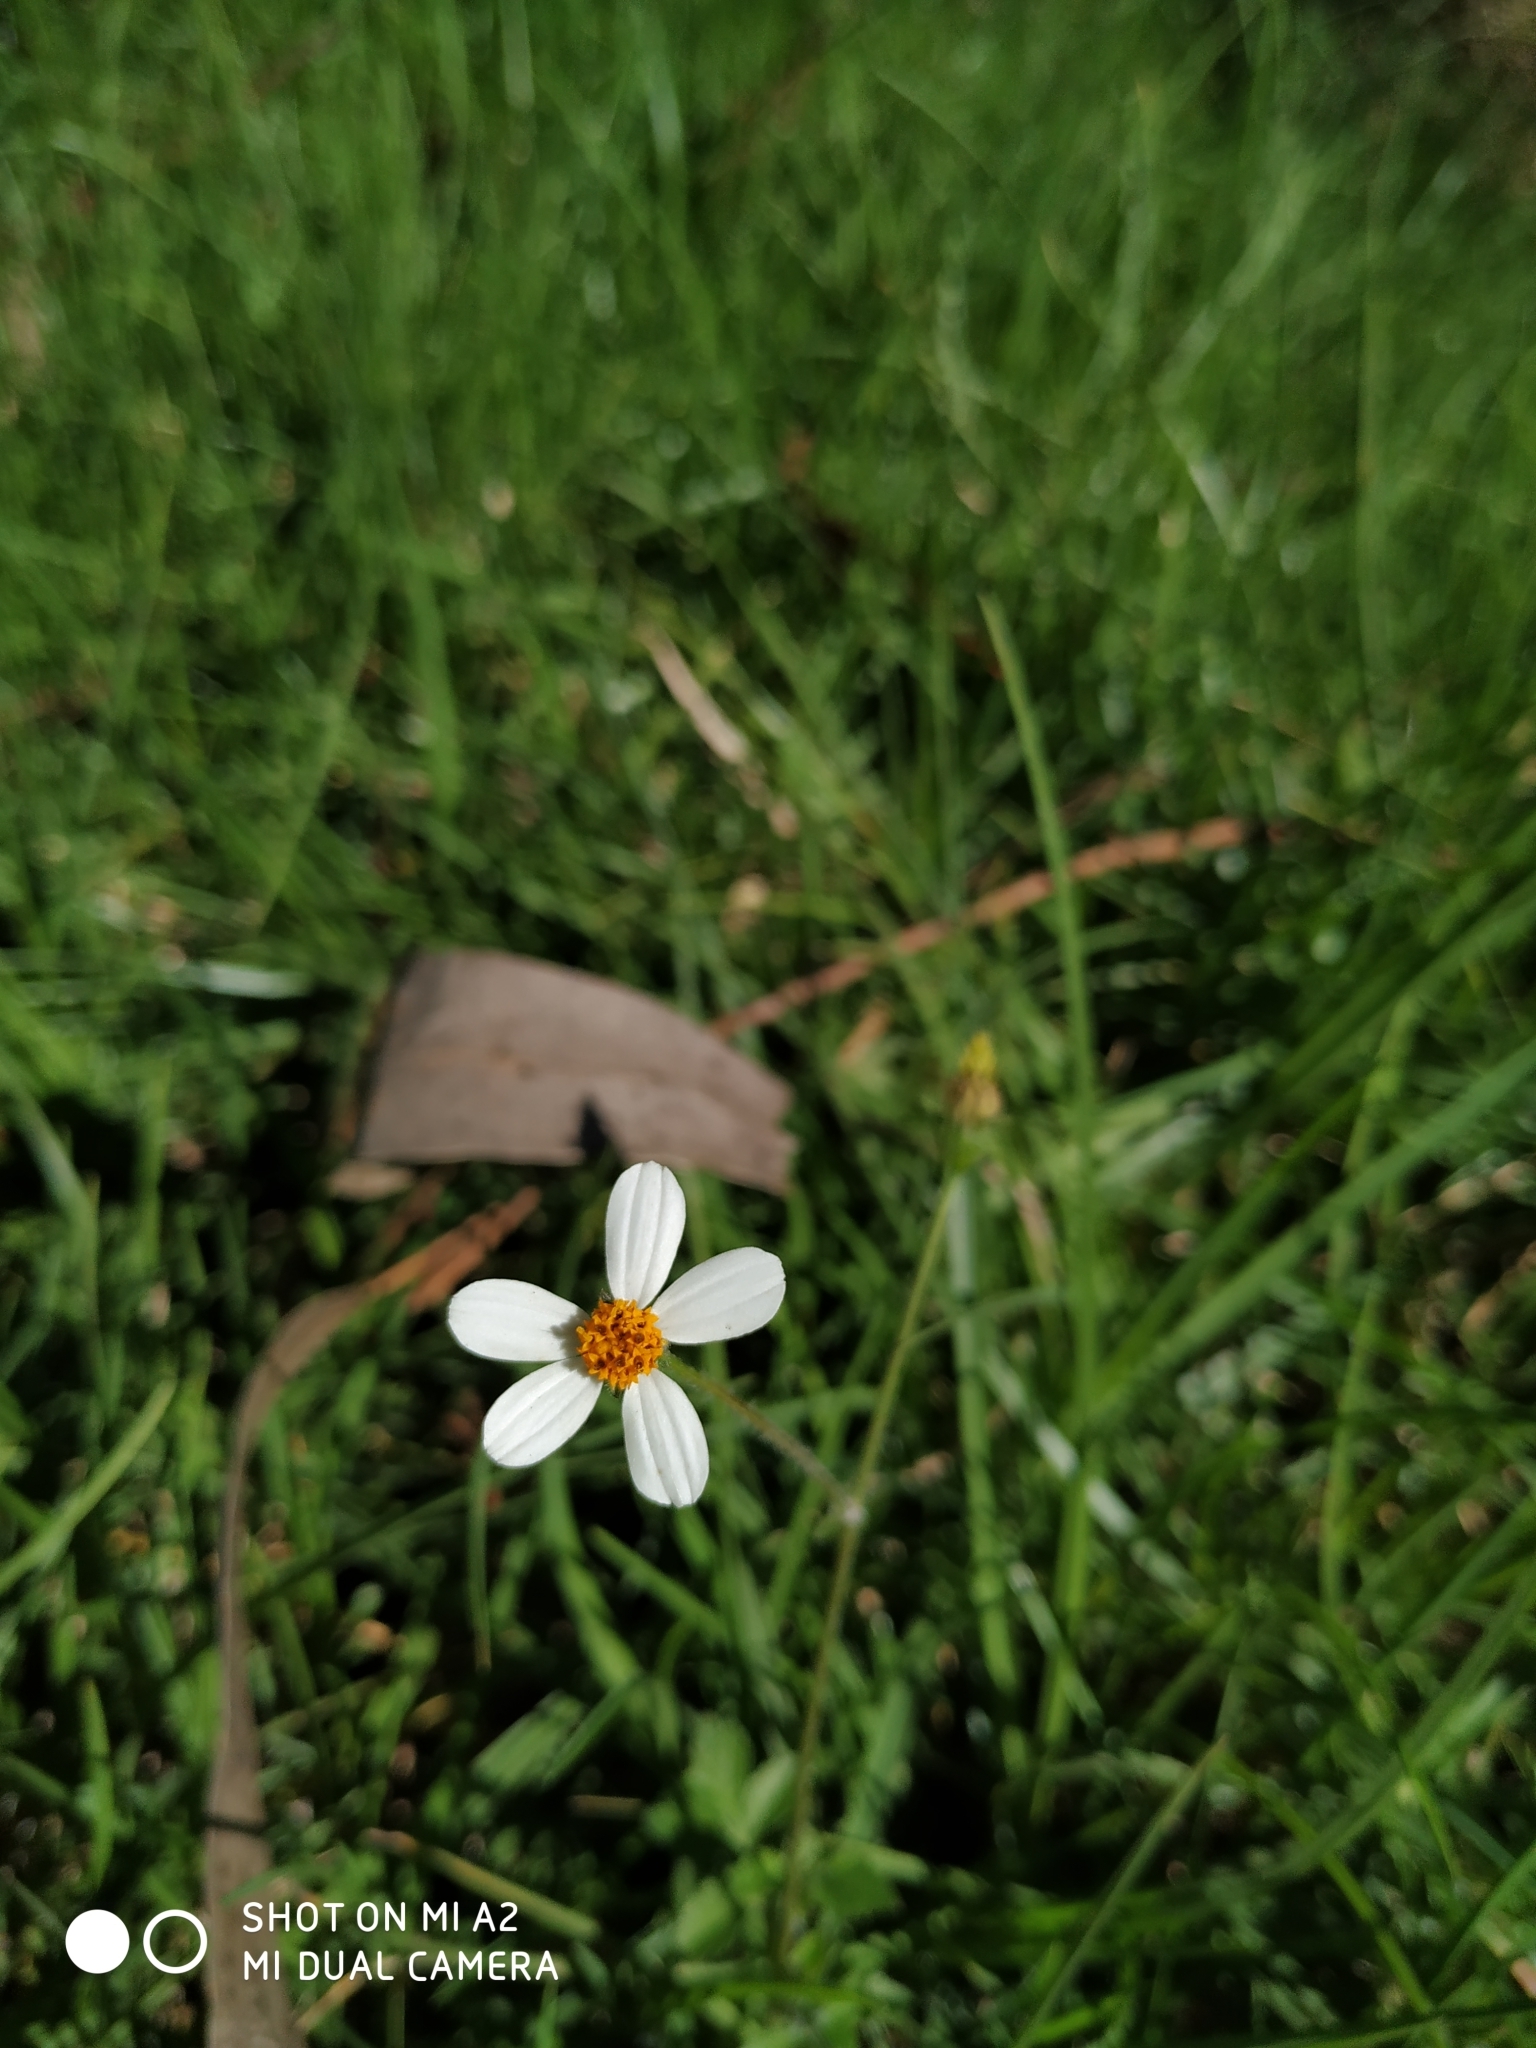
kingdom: Plantae
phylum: Tracheophyta
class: Magnoliopsida
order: Asterales
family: Asteraceae
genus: Bidens
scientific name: Bidens alba
